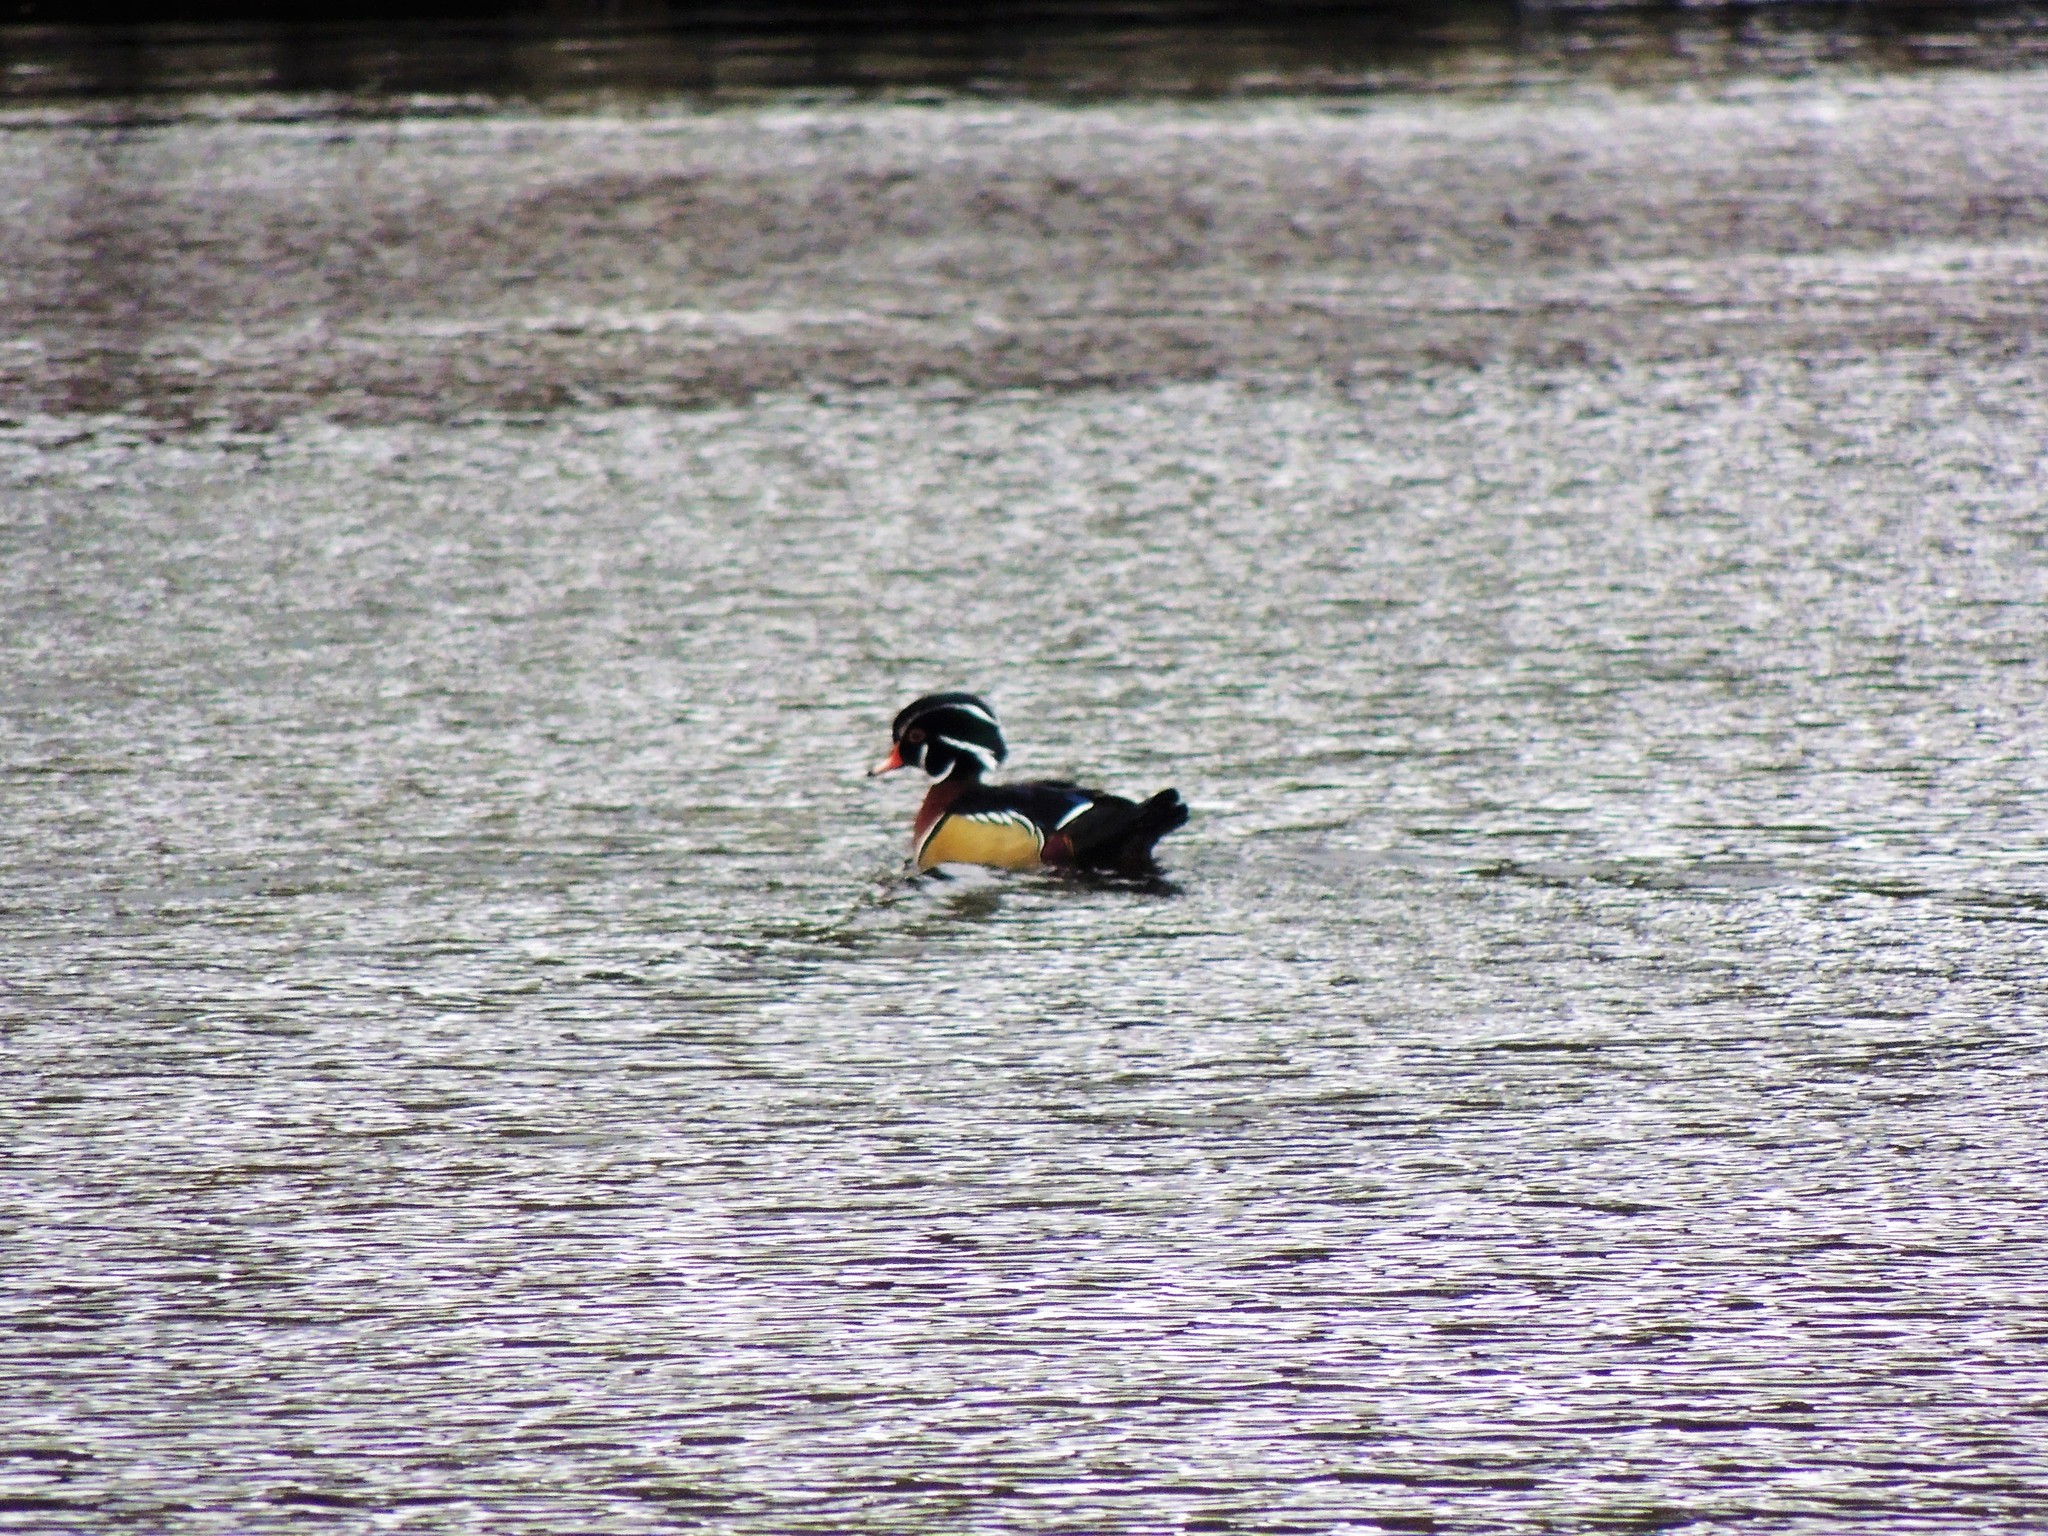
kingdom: Animalia
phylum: Chordata
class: Aves
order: Anseriformes
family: Anatidae
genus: Aix
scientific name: Aix sponsa
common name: Wood duck
